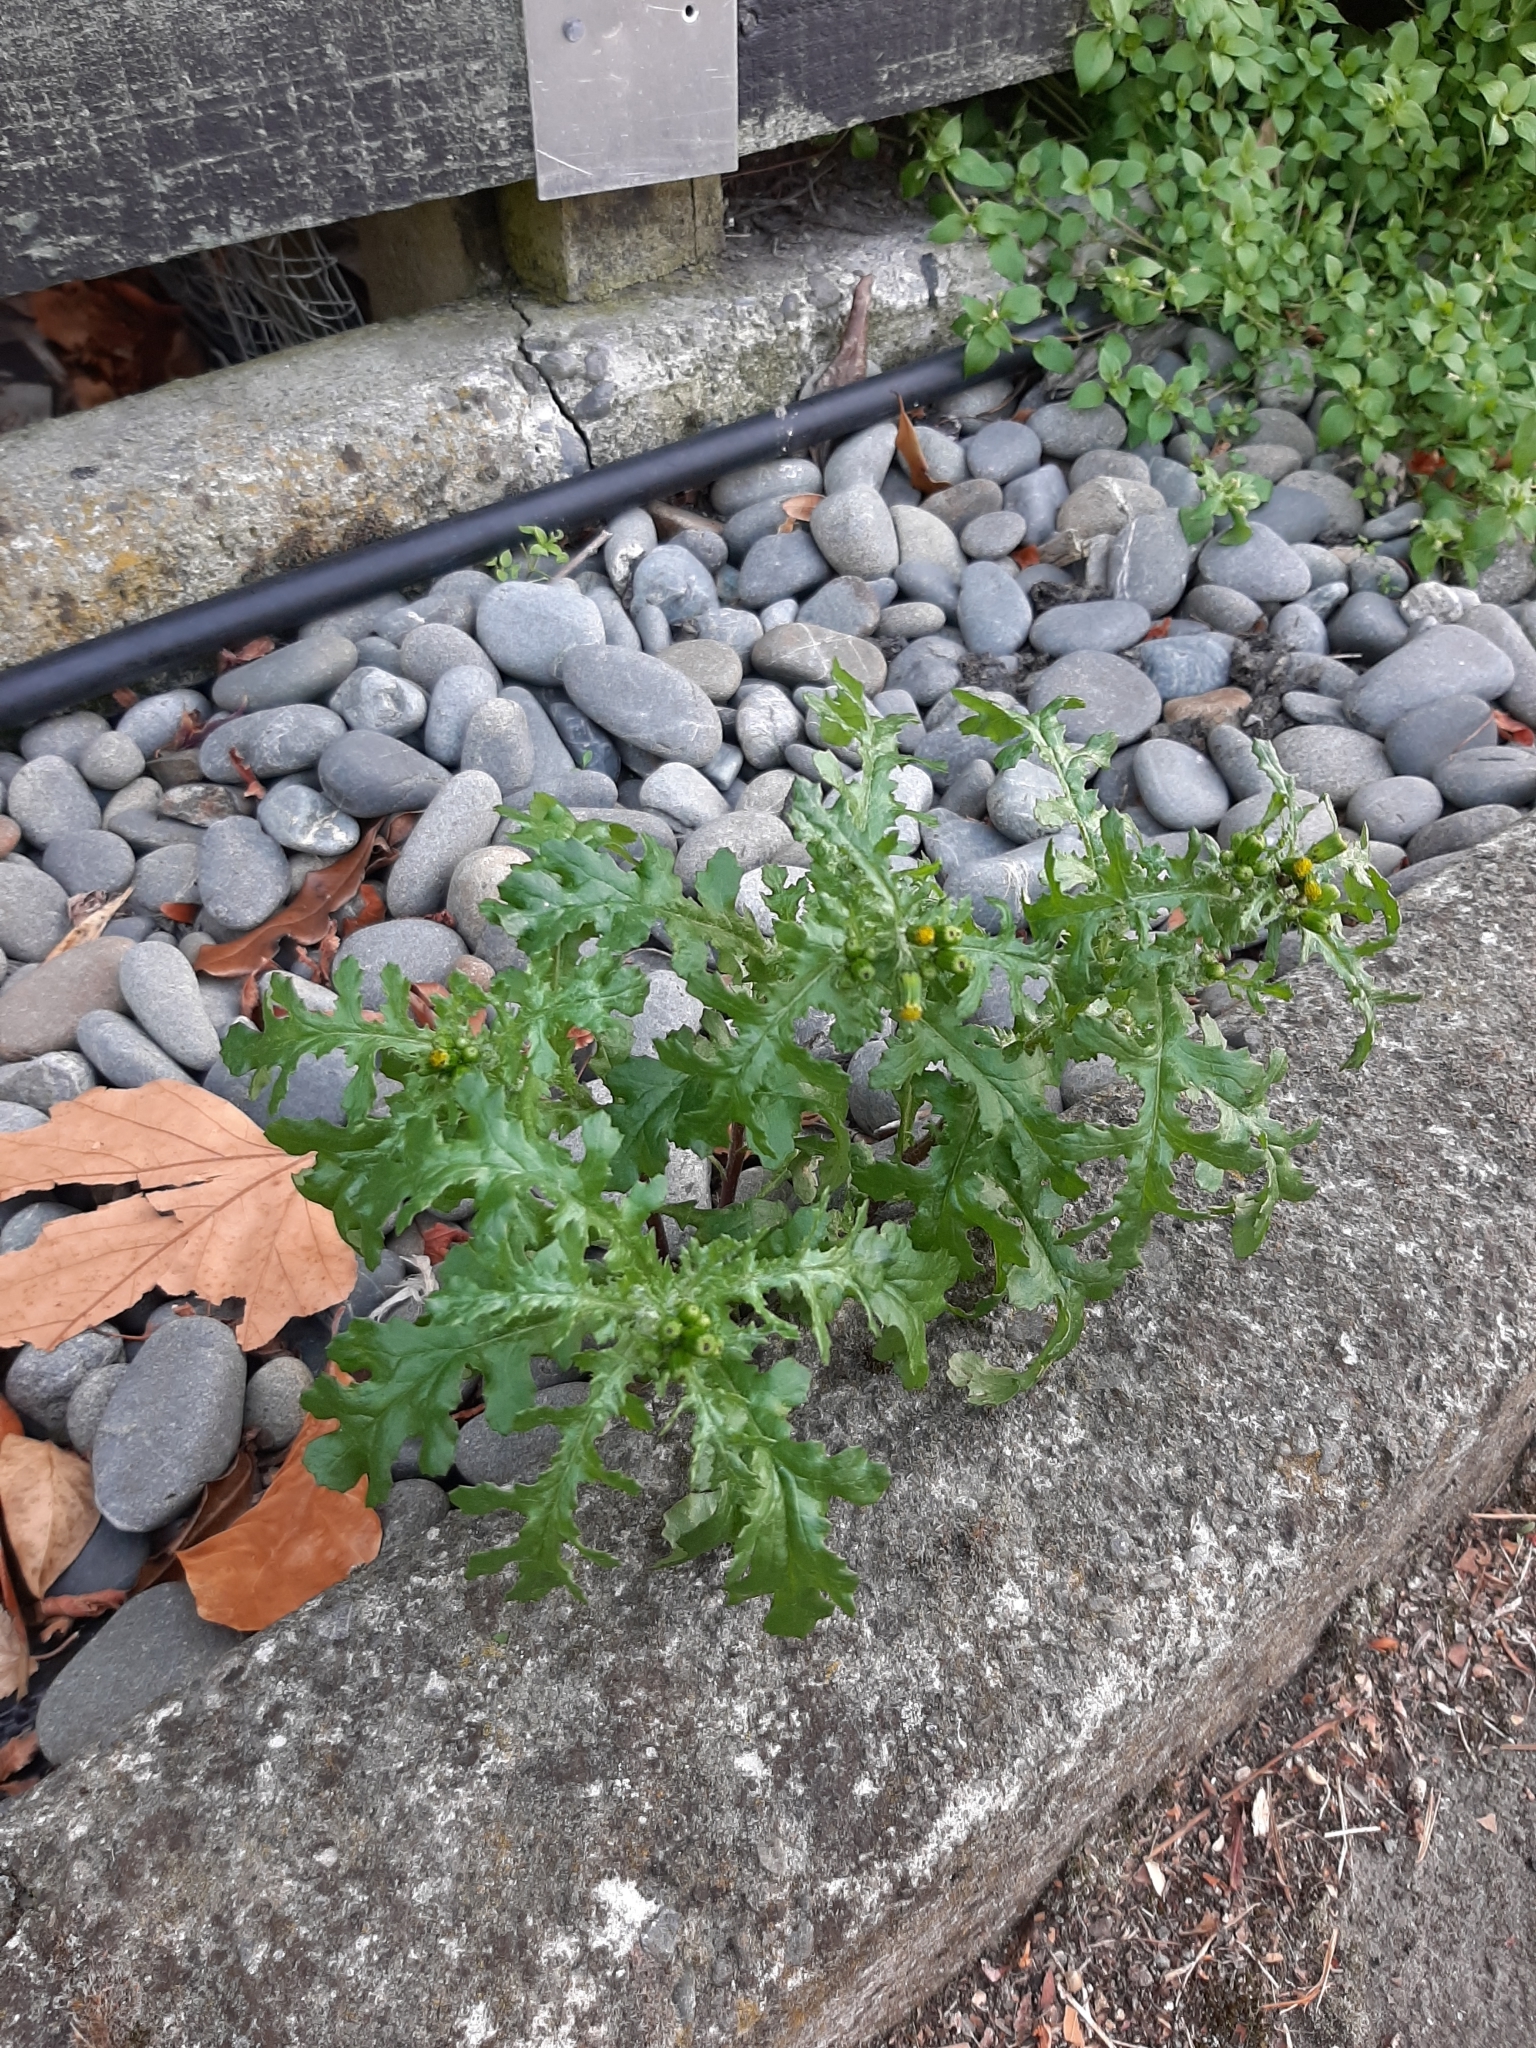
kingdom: Plantae
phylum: Tracheophyta
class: Magnoliopsida
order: Asterales
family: Asteraceae
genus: Senecio
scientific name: Senecio vulgaris
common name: Old-man-in-the-spring
